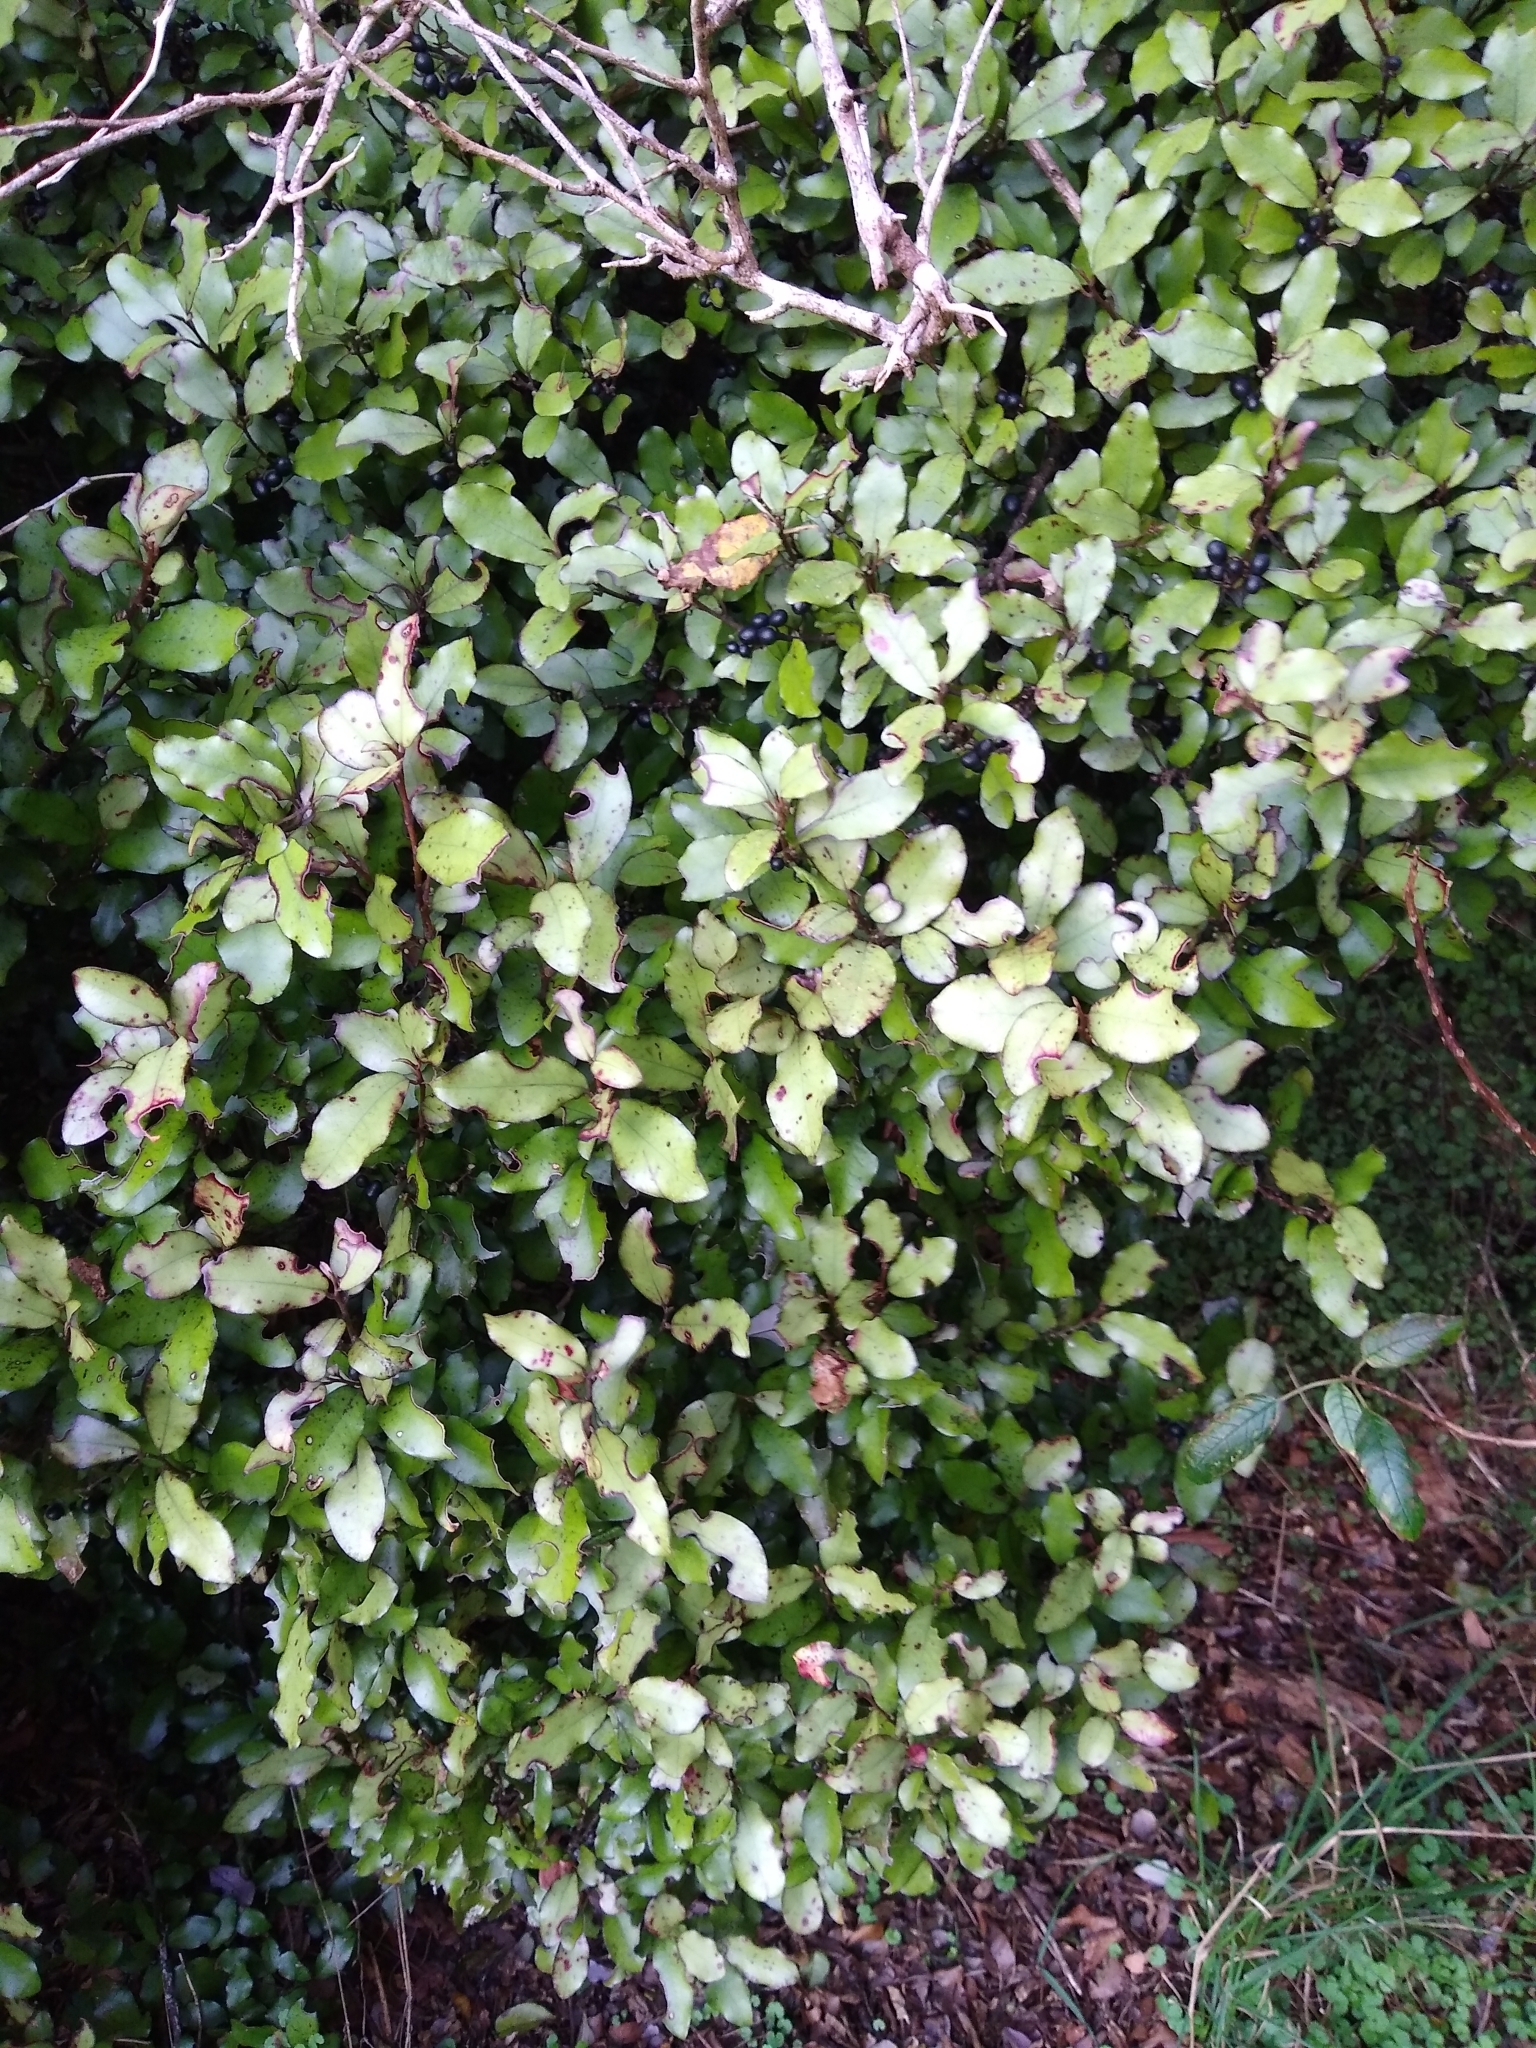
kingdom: Plantae
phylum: Tracheophyta
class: Magnoliopsida
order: Canellales
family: Winteraceae
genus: Pseudowintera
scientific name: Pseudowintera colorata
